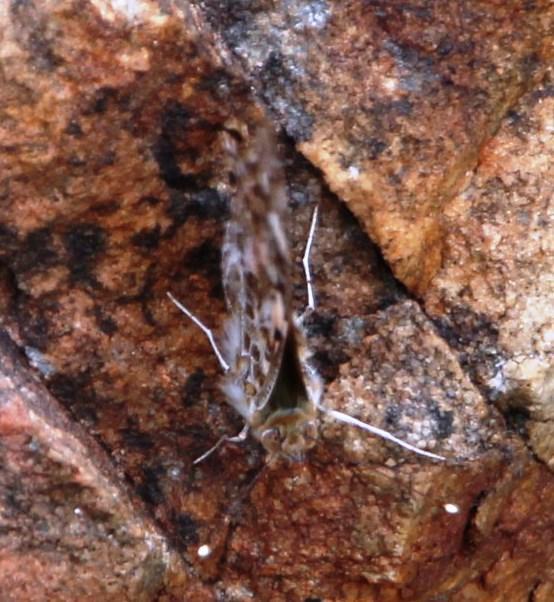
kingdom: Animalia
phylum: Arthropoda
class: Insecta
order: Lepidoptera
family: Nymphalidae
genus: Vanessa
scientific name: Vanessa cardui
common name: Painted lady
